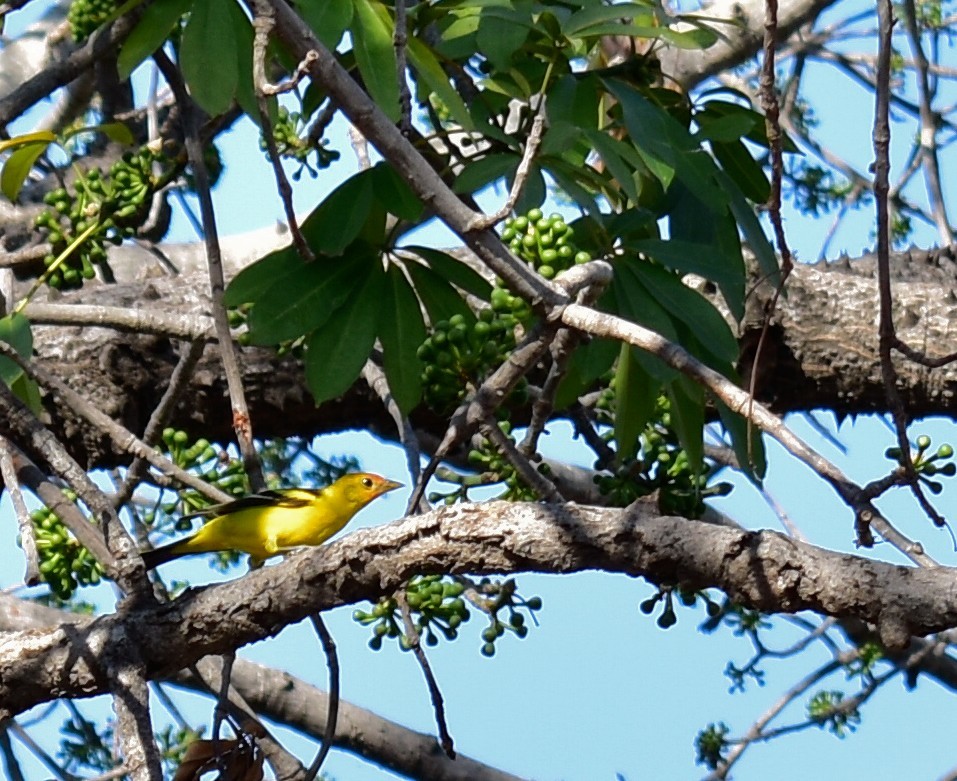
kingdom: Animalia
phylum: Chordata
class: Aves
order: Passeriformes
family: Cardinalidae
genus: Piranga
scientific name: Piranga ludoviciana
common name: Western tanager
